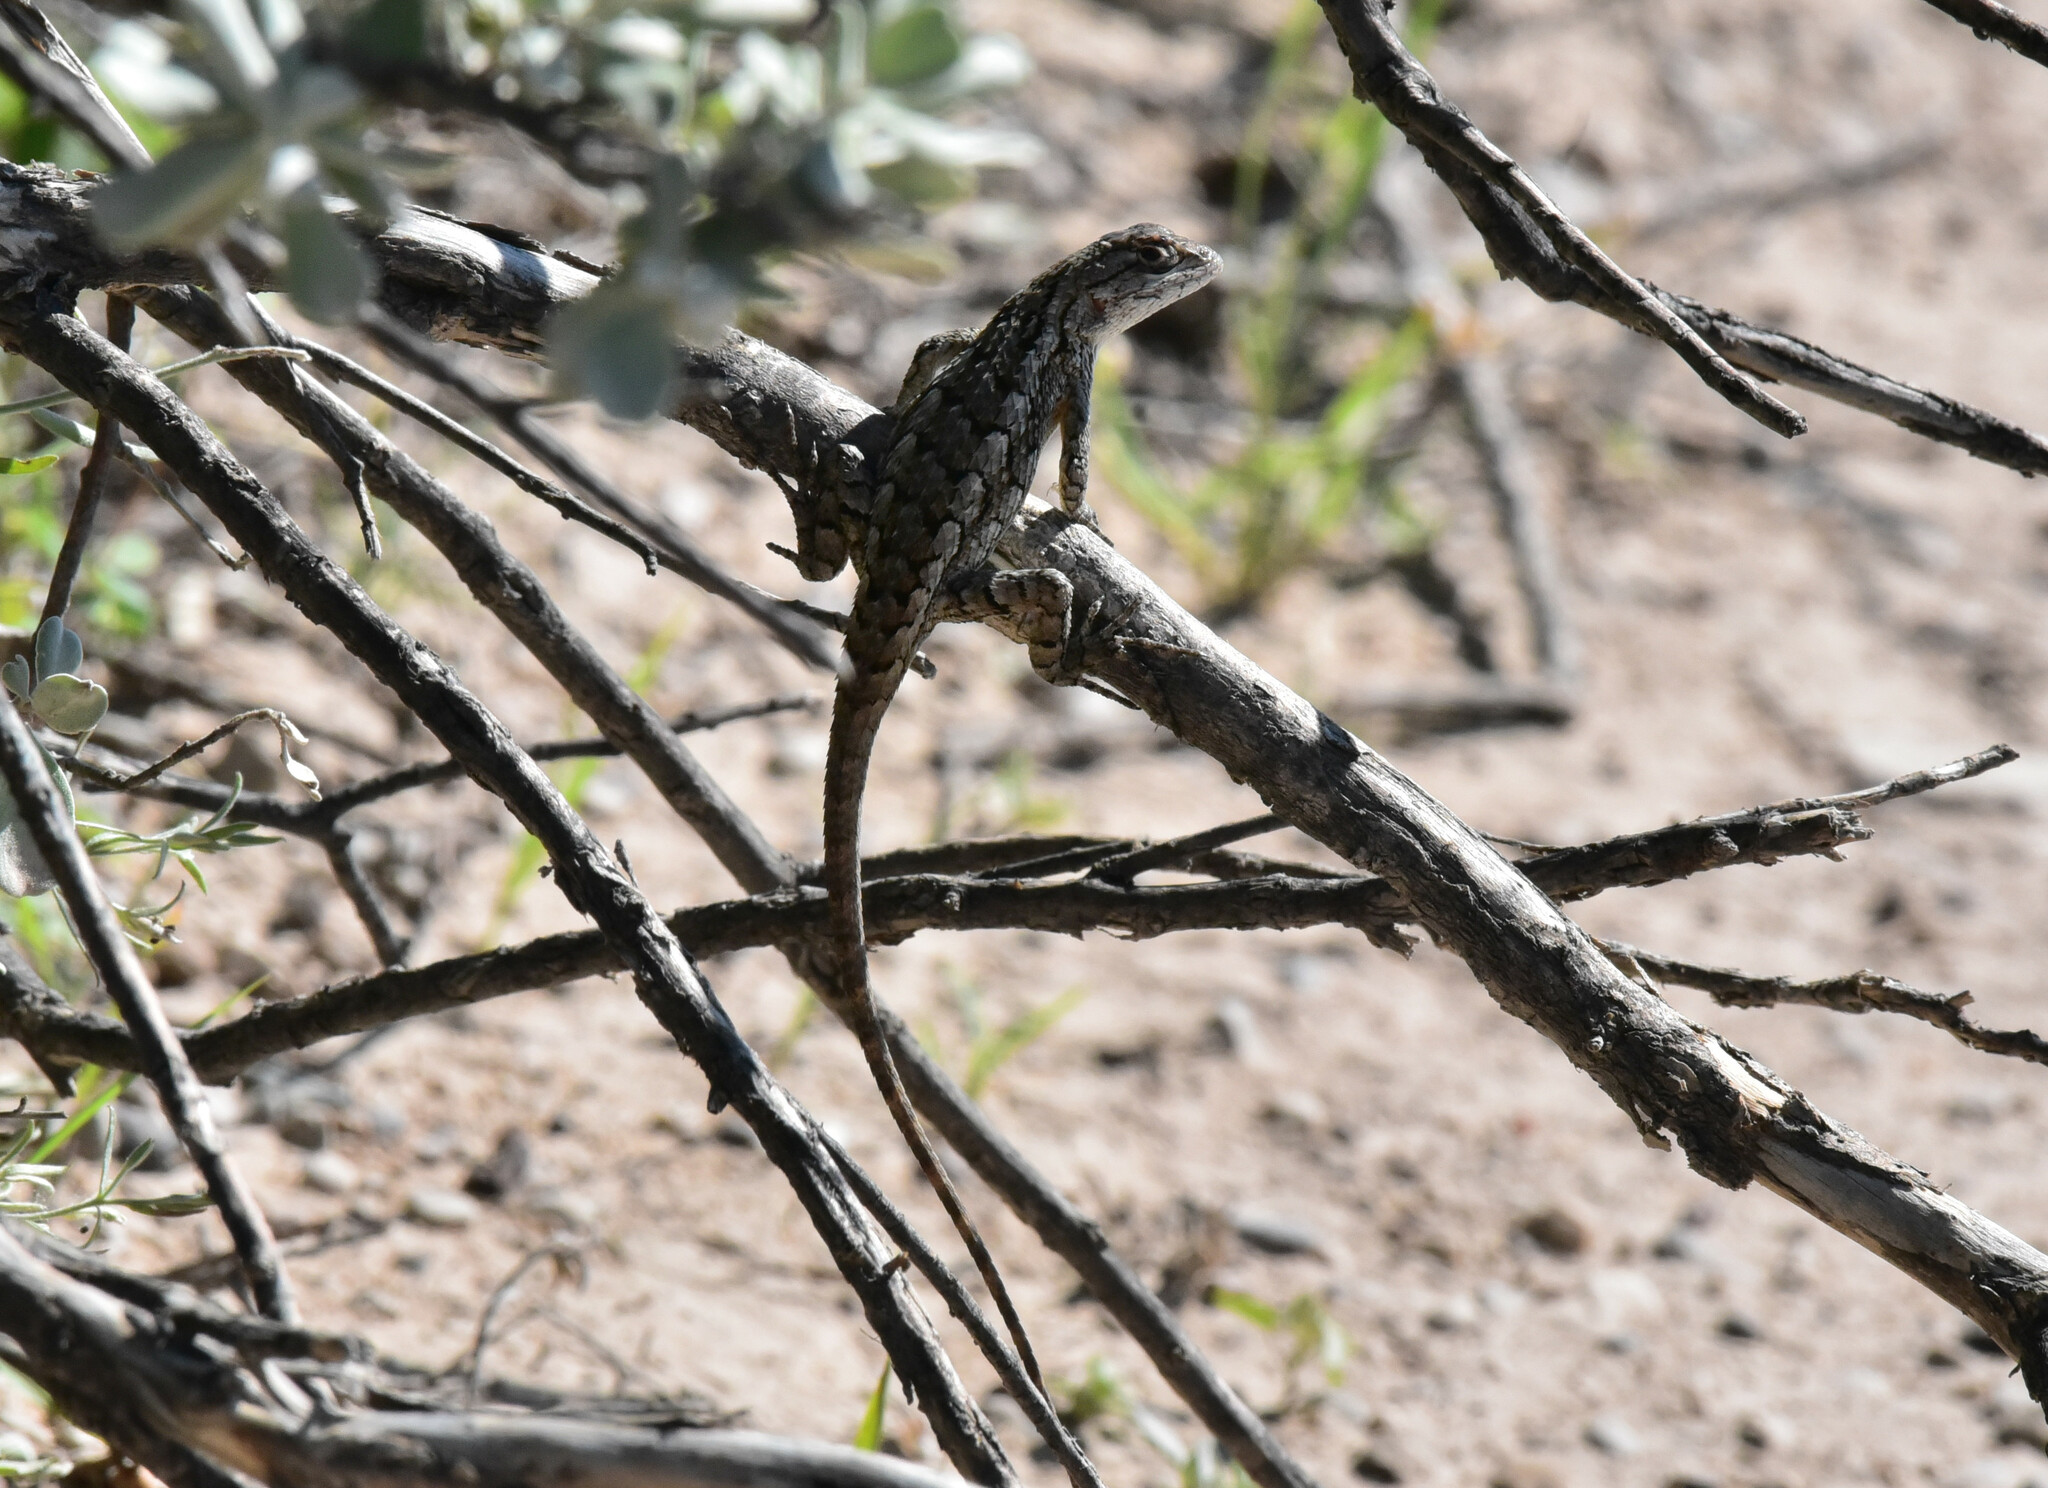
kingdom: Animalia
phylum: Chordata
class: Squamata
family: Phrynosomatidae
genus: Sceloporus
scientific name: Sceloporus olivaceus
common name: Texas spiny lizard
